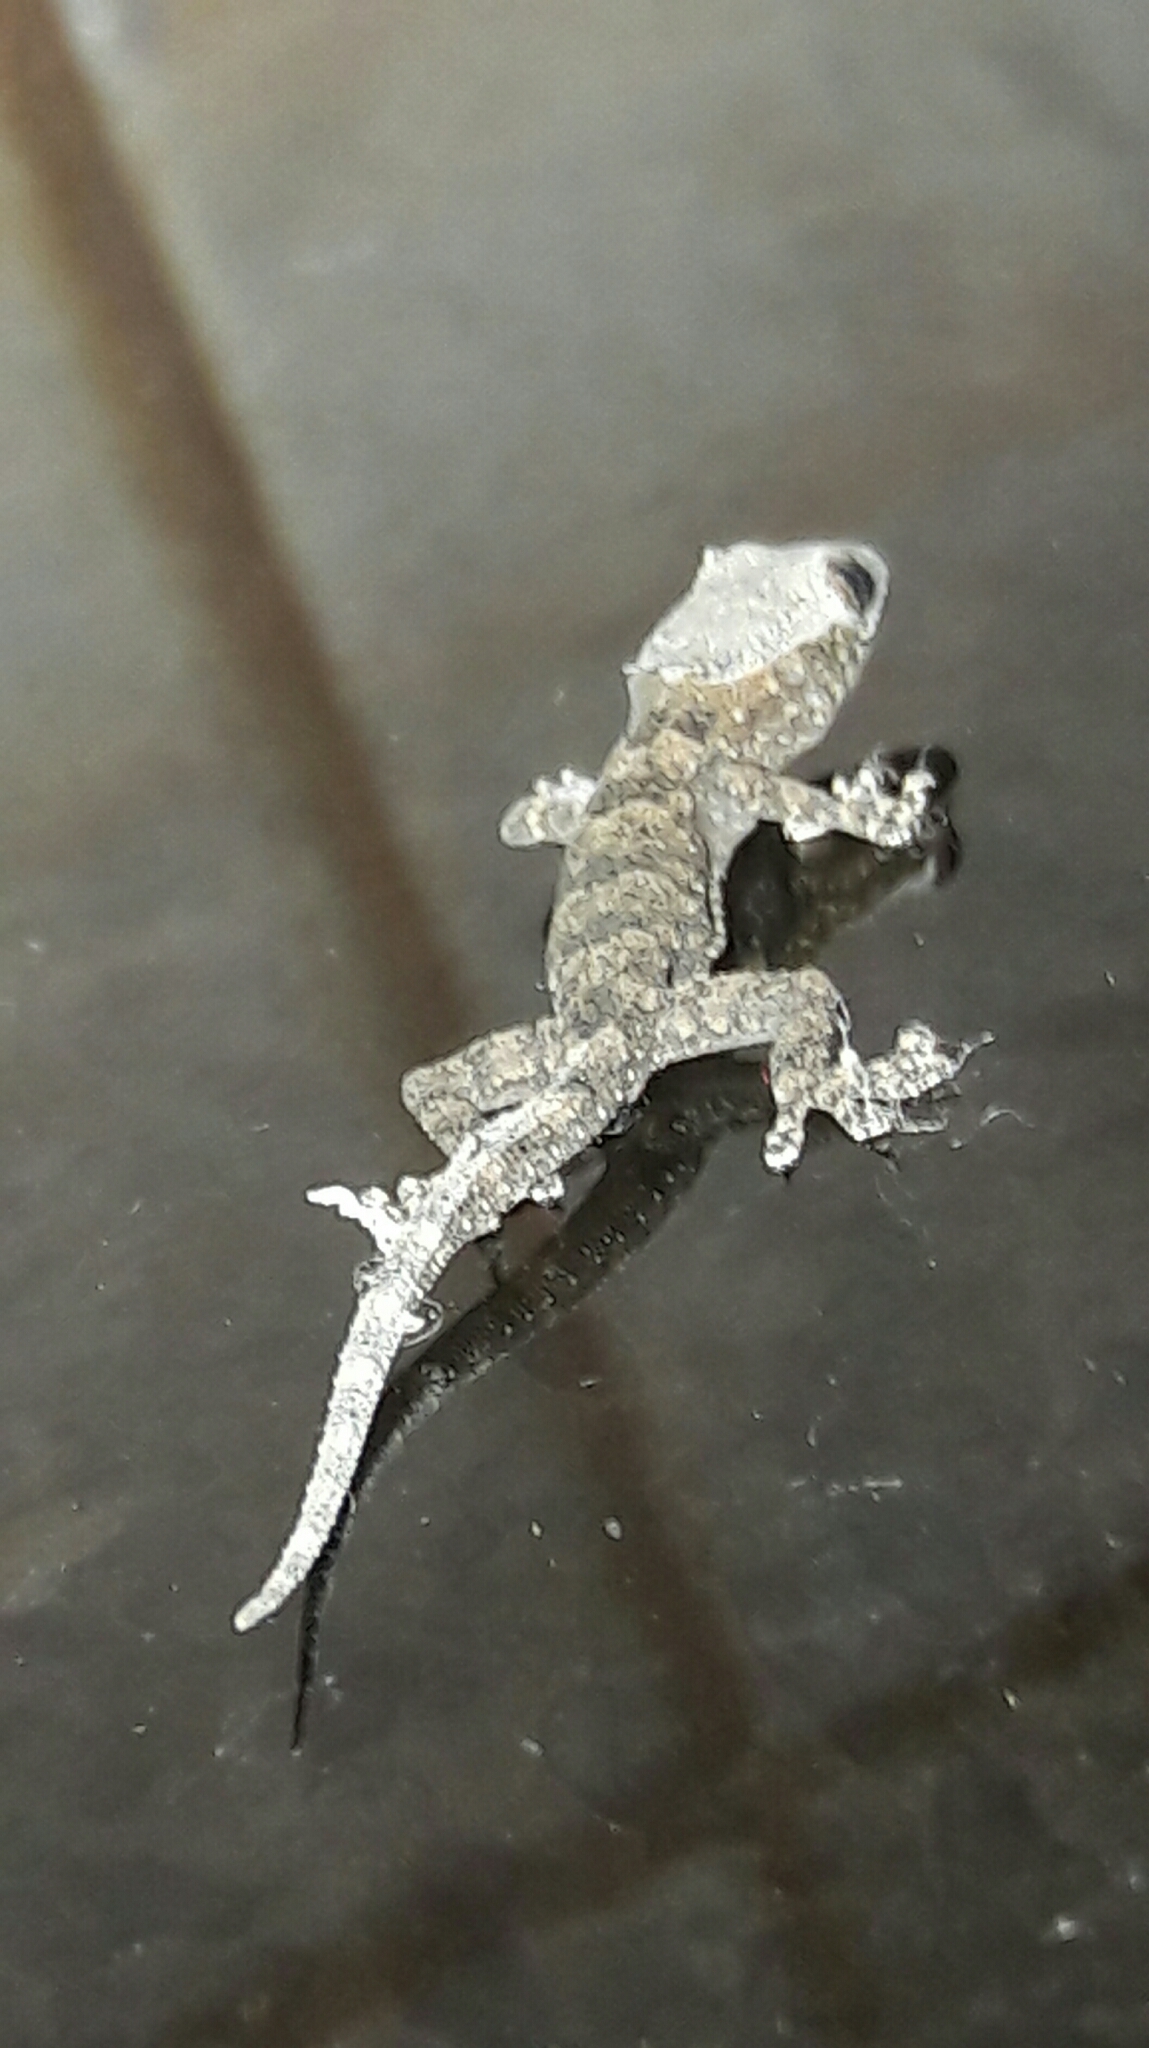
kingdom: Animalia
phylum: Chordata
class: Squamata
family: Gekkonidae
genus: Hemidactylus
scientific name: Hemidactylus mabouia
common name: House gecko
